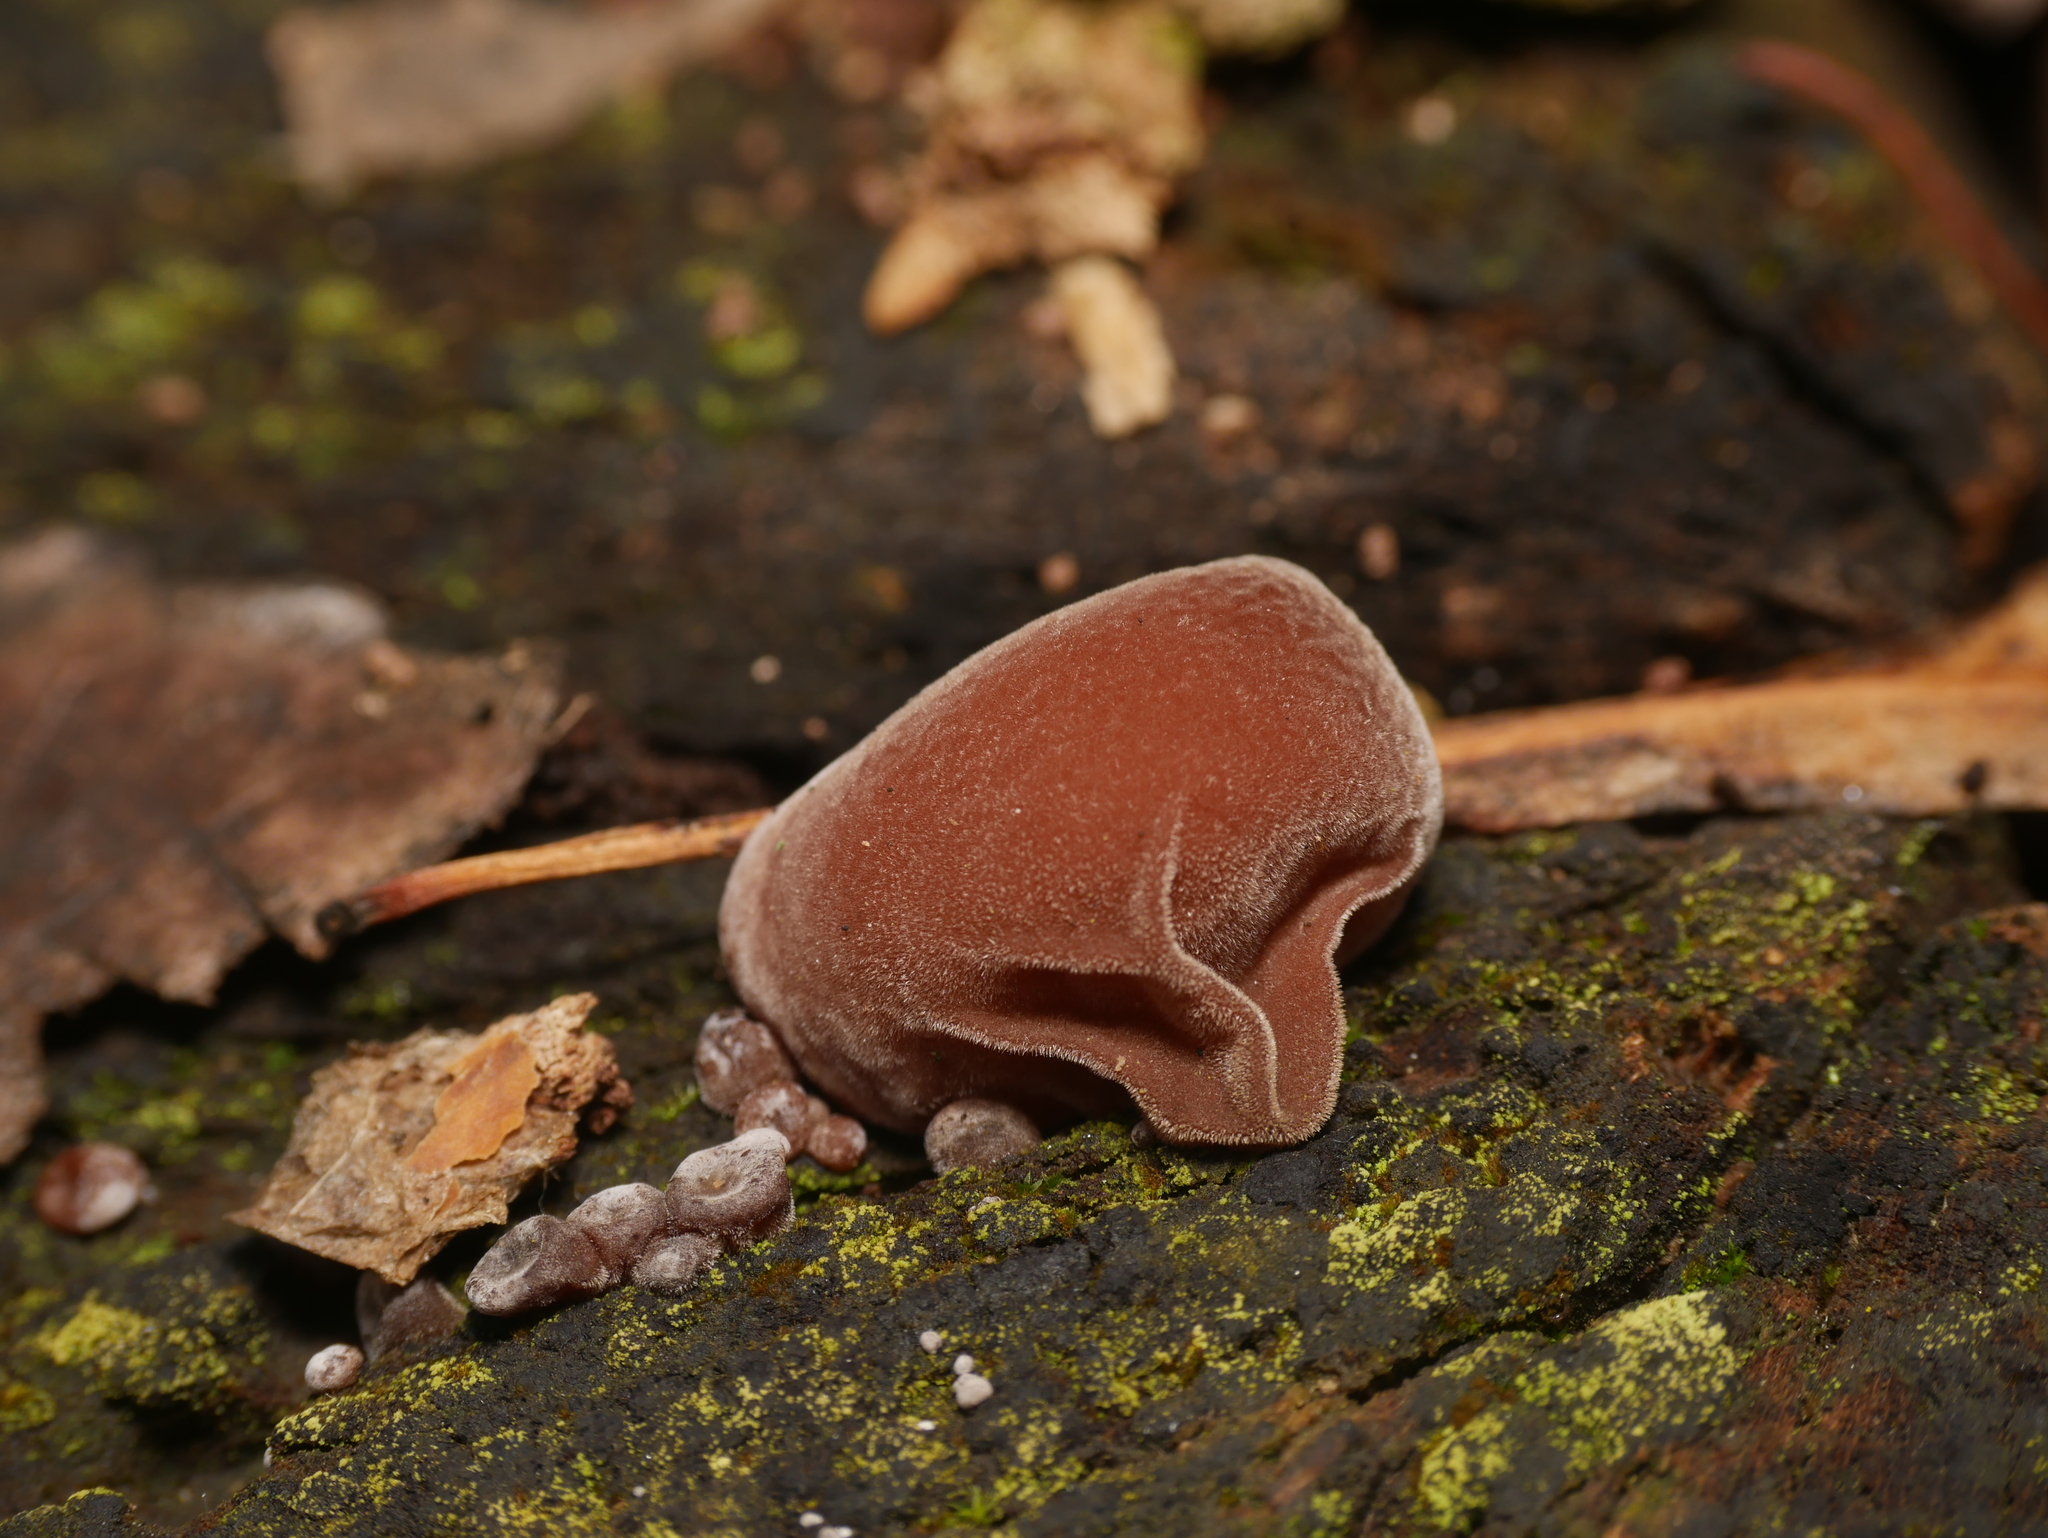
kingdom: Fungi
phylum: Basidiomycota
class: Agaricomycetes
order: Auriculariales
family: Auriculariaceae
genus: Auricularia
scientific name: Auricularia auricula-judae
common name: Jelly ear
